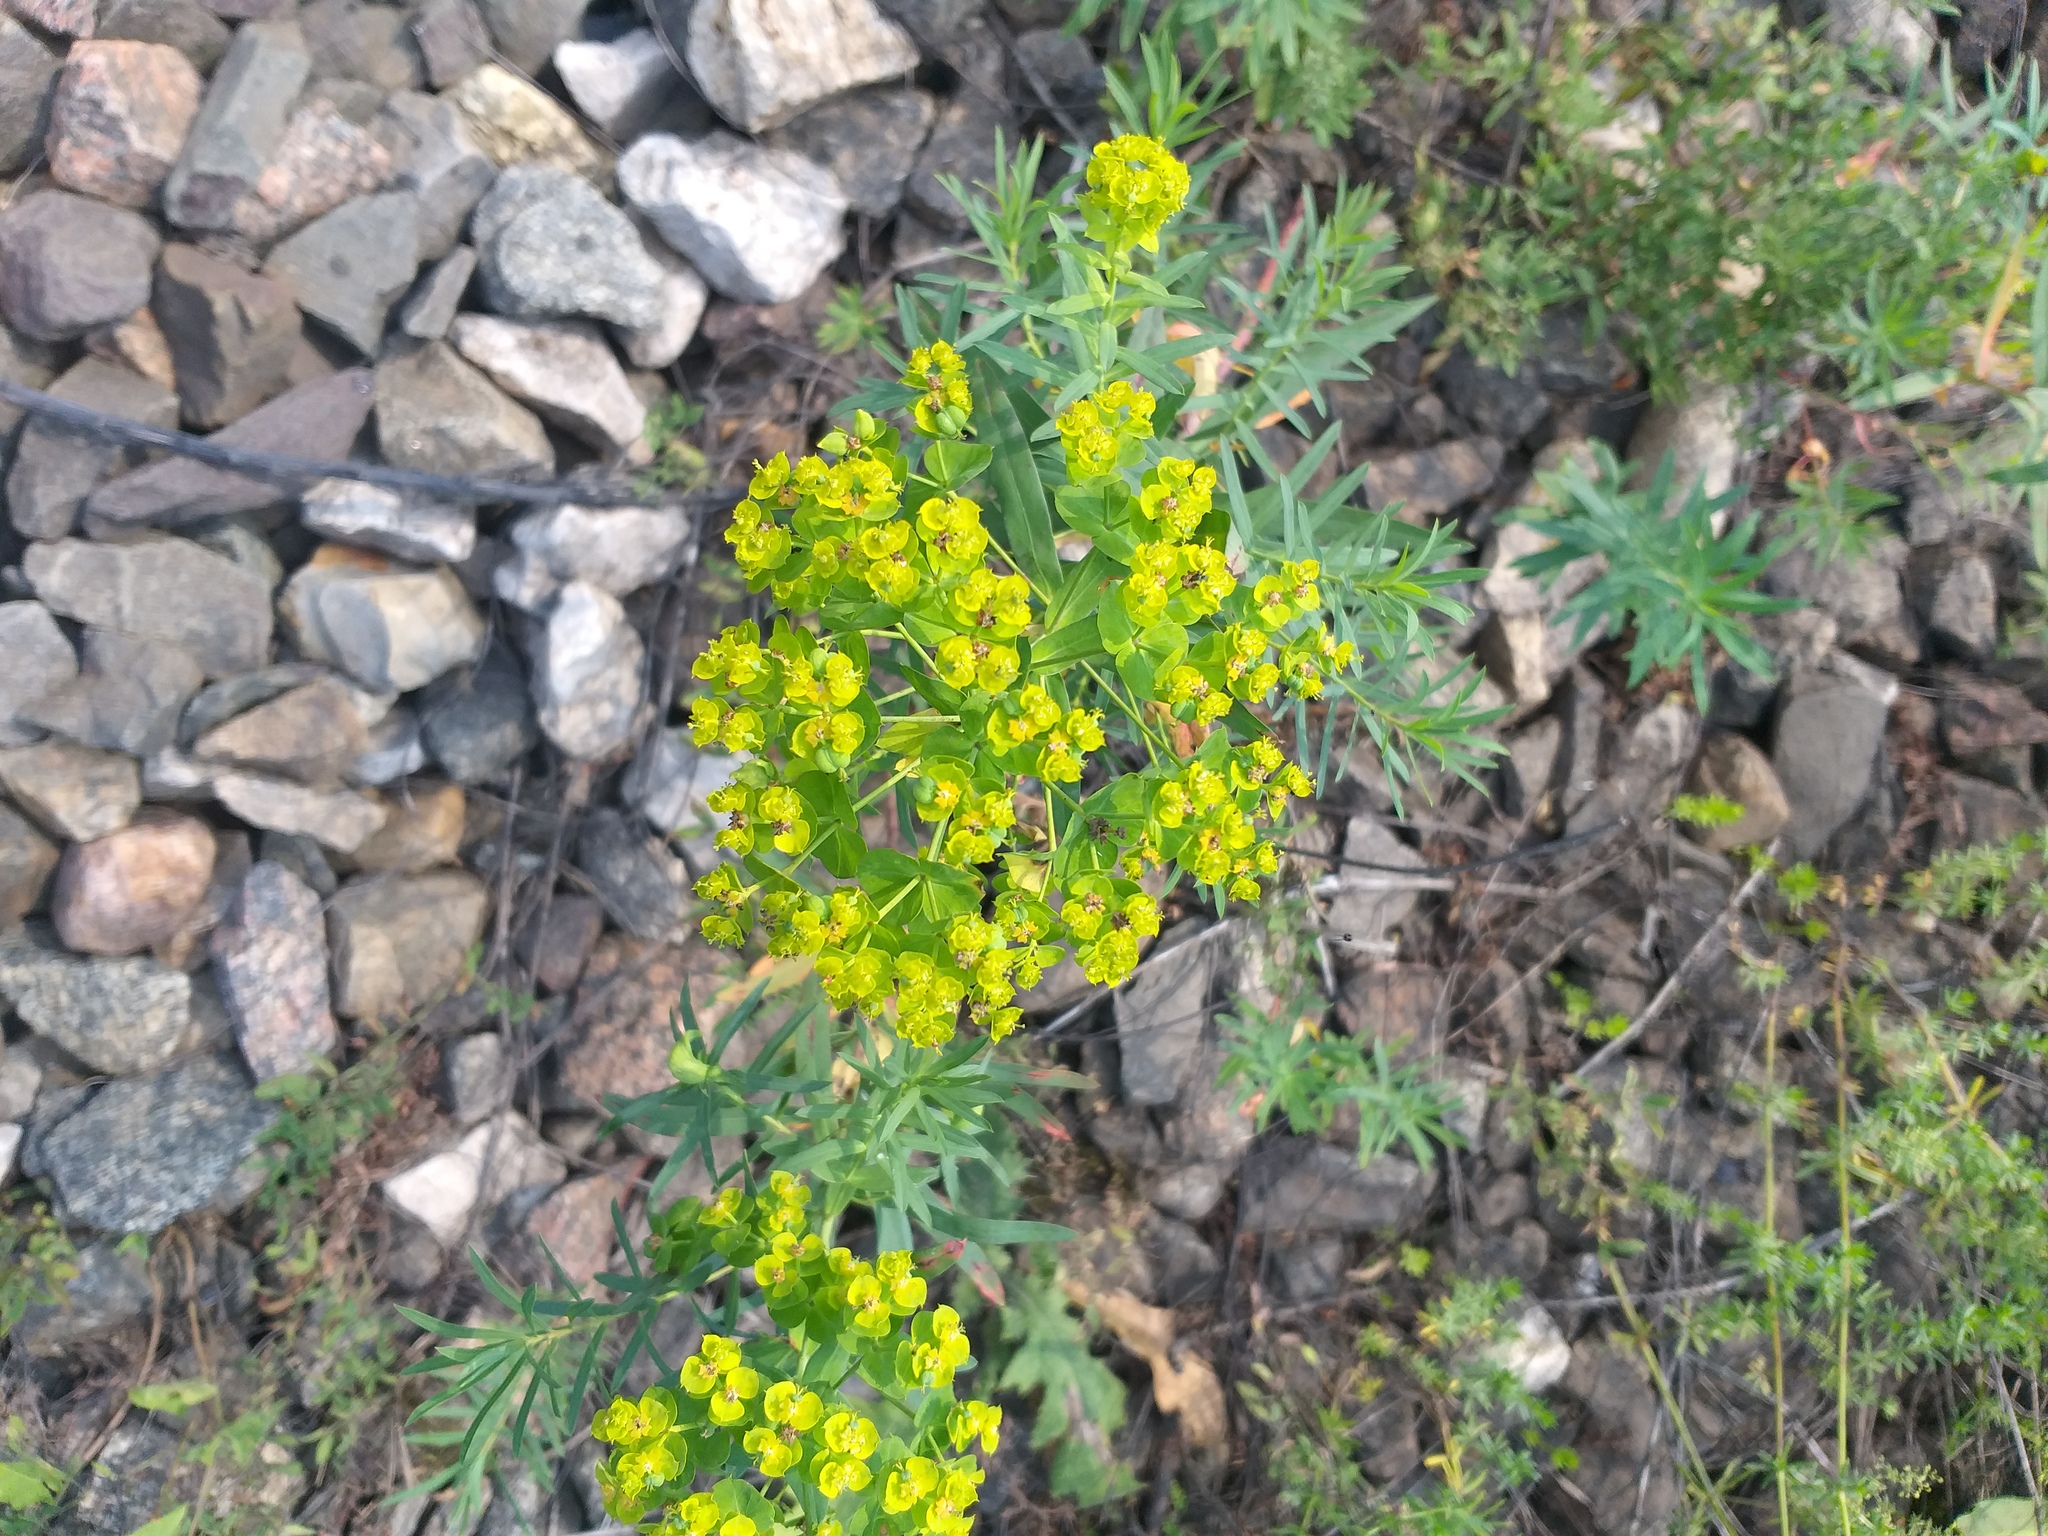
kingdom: Plantae
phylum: Tracheophyta
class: Magnoliopsida
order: Malpighiales
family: Euphorbiaceae
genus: Euphorbia
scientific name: Euphorbia virgata
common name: Leafy spurge
